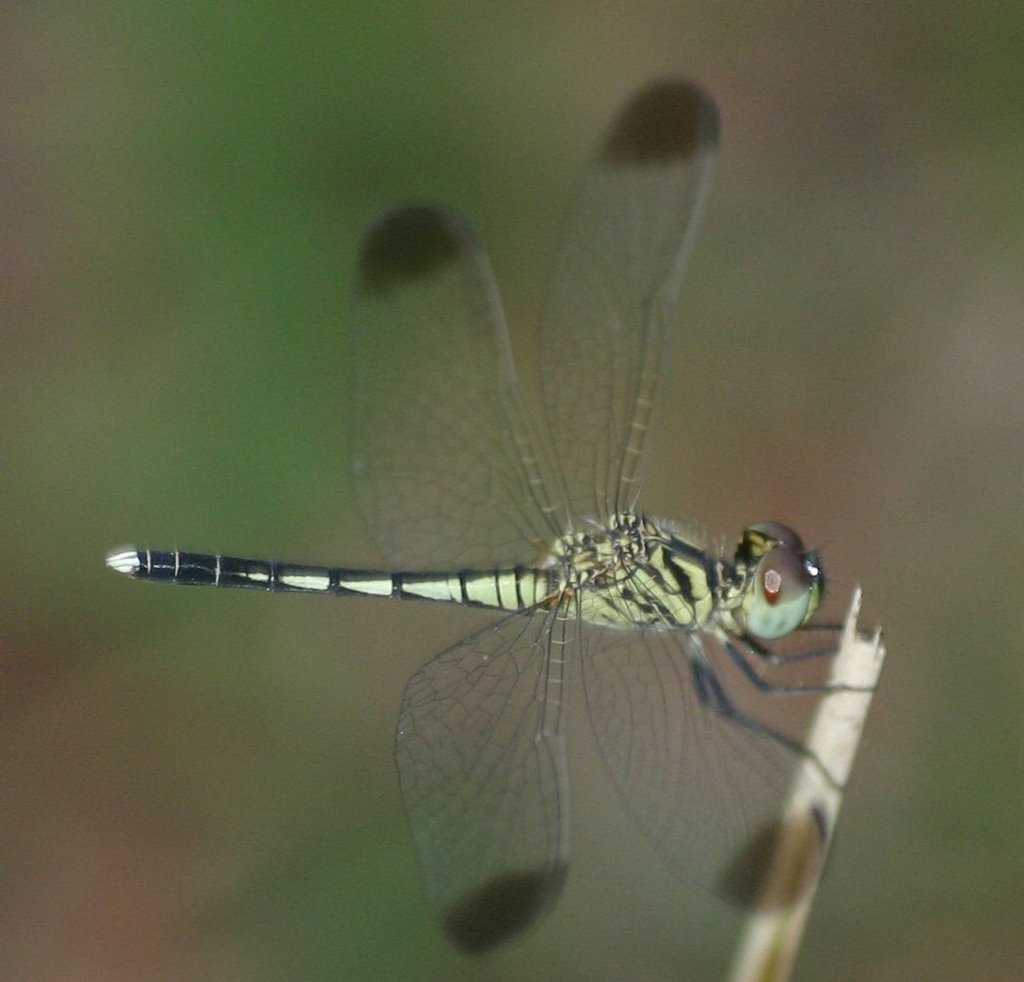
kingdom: Animalia
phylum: Arthropoda
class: Insecta
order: Odonata
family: Libellulidae
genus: Diplacodes
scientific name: Diplacodes nebulosa
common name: Black-tipped percher
